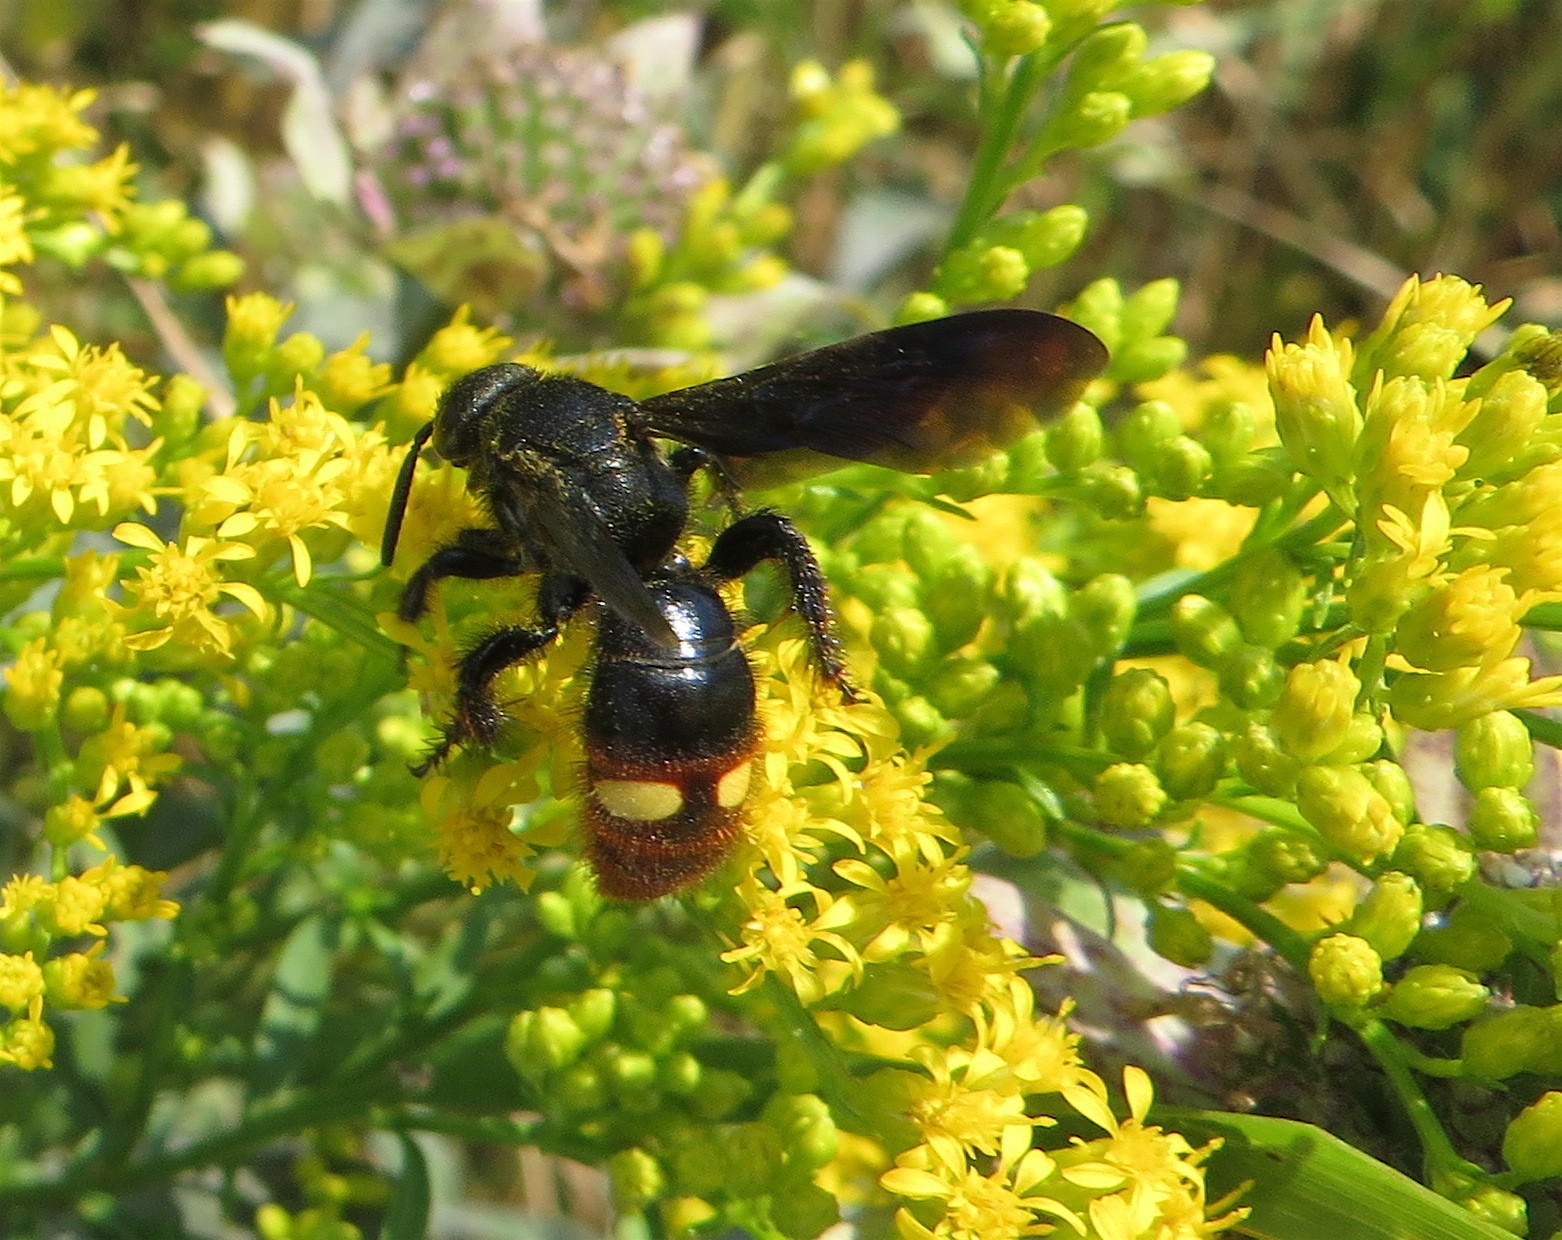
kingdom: Animalia
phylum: Arthropoda
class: Insecta
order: Hymenoptera
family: Scoliidae
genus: Scolia
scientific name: Scolia dubia
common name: Blue-winged scoliid wasp
